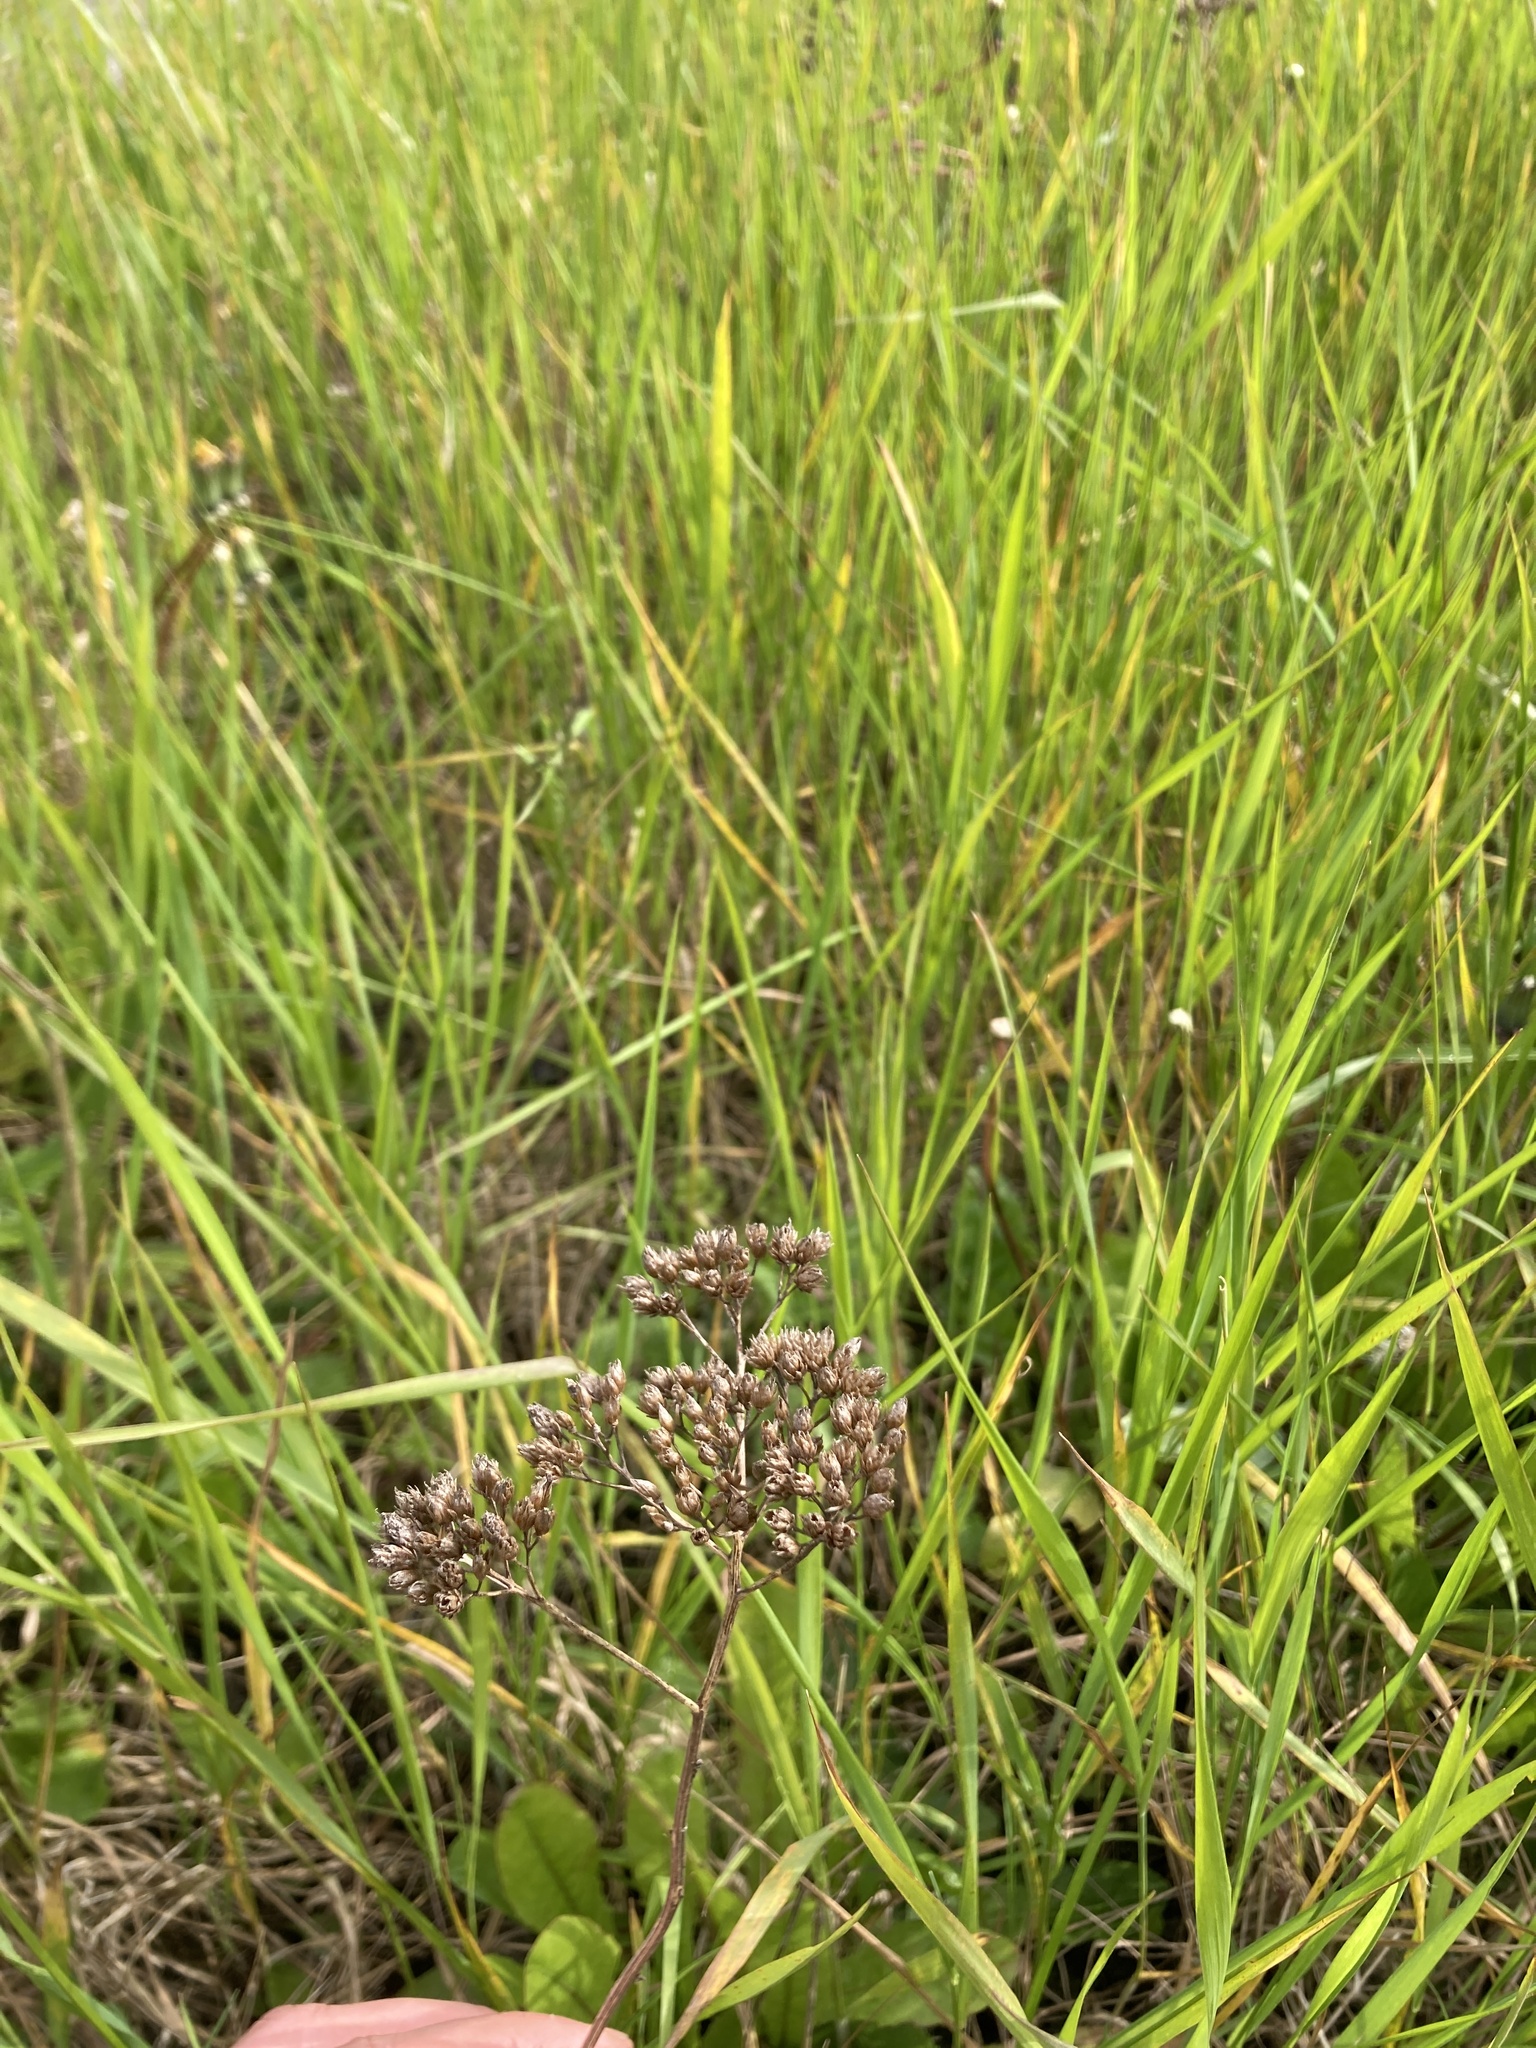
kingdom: Plantae
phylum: Tracheophyta
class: Magnoliopsida
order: Asterales
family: Asteraceae
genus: Achillea
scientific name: Achillea millefolium
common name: Yarrow
